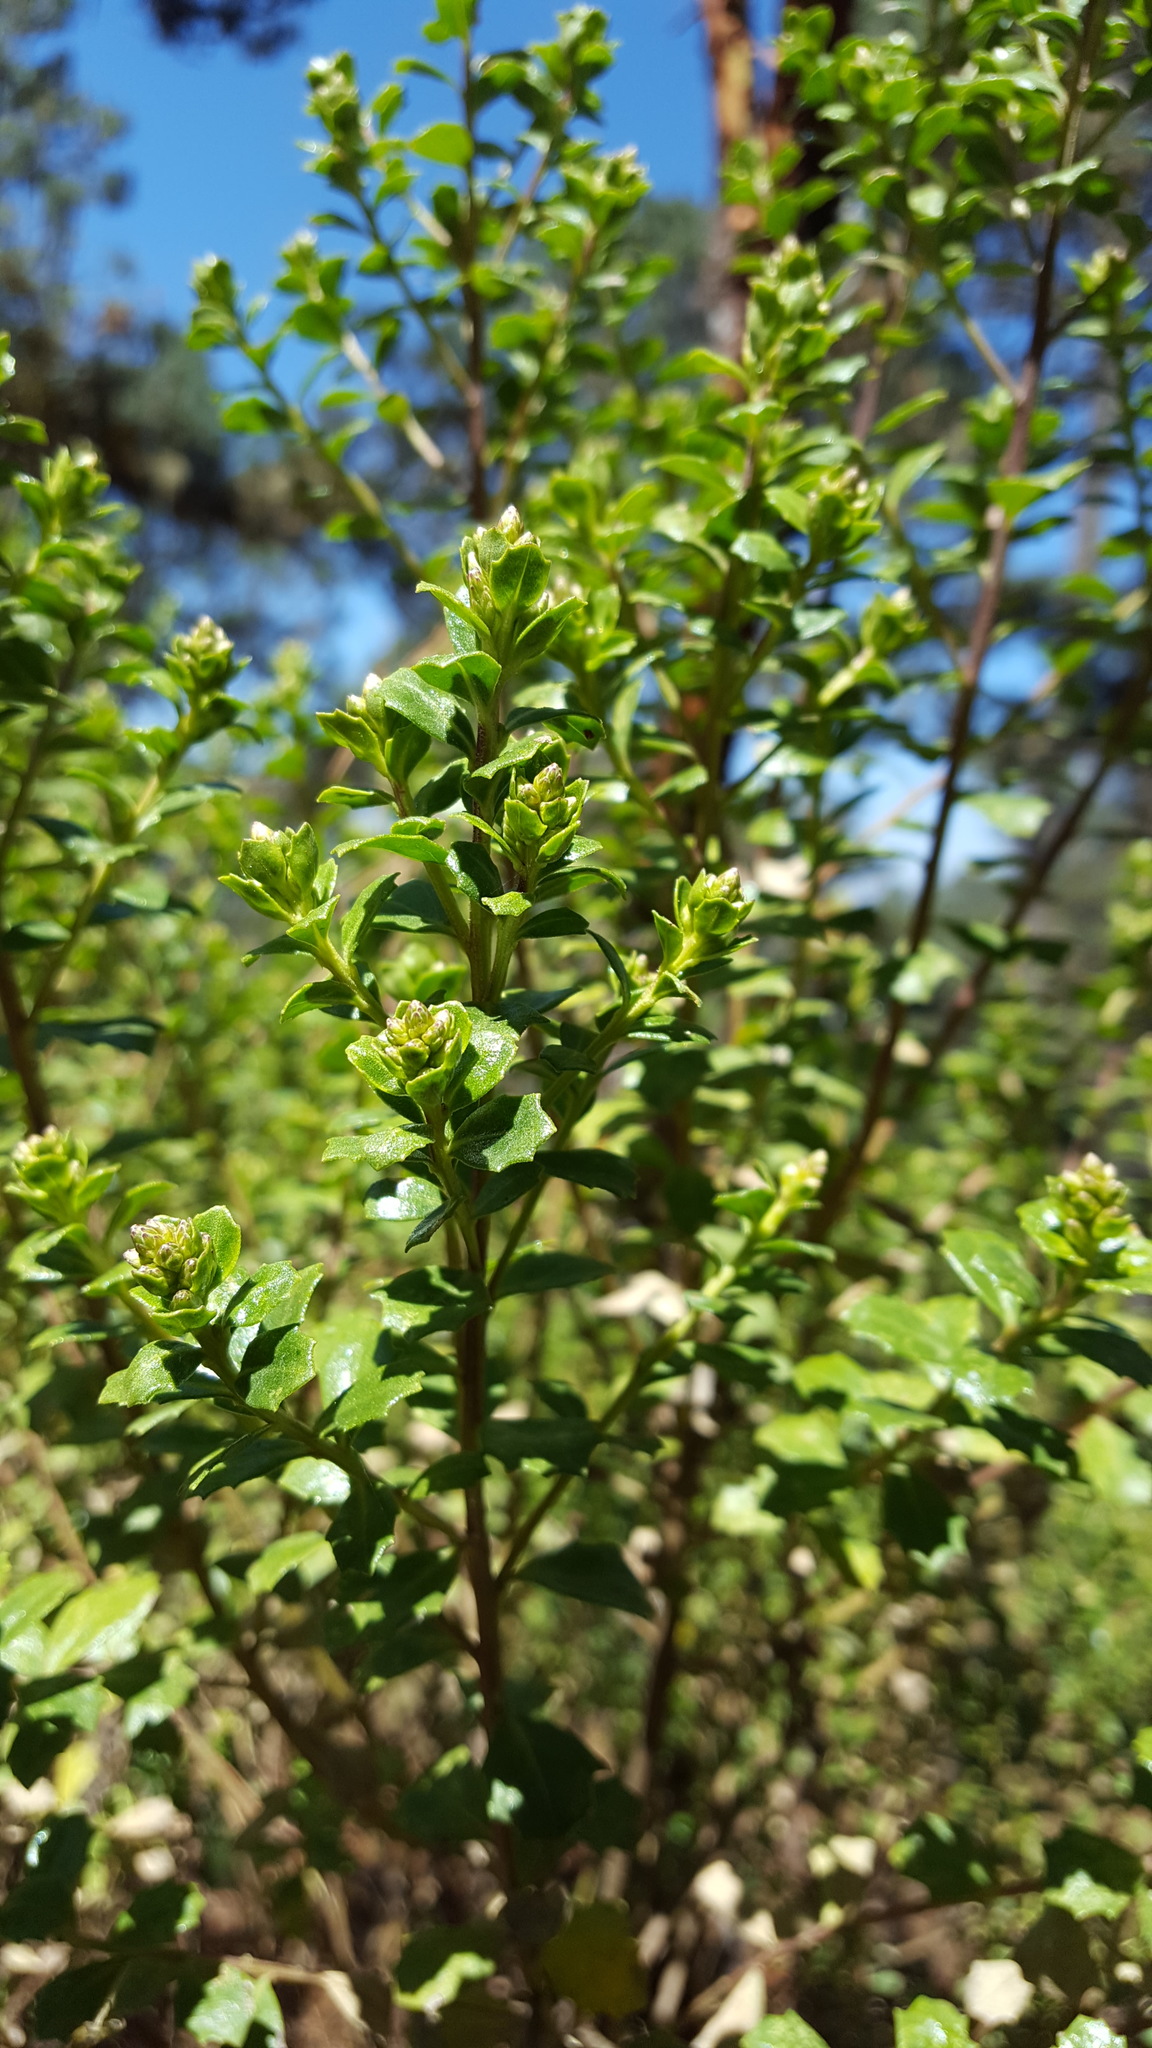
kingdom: Plantae
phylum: Tracheophyta
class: Magnoliopsida
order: Asterales
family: Asteraceae
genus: Baccharis
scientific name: Baccharis conferta
